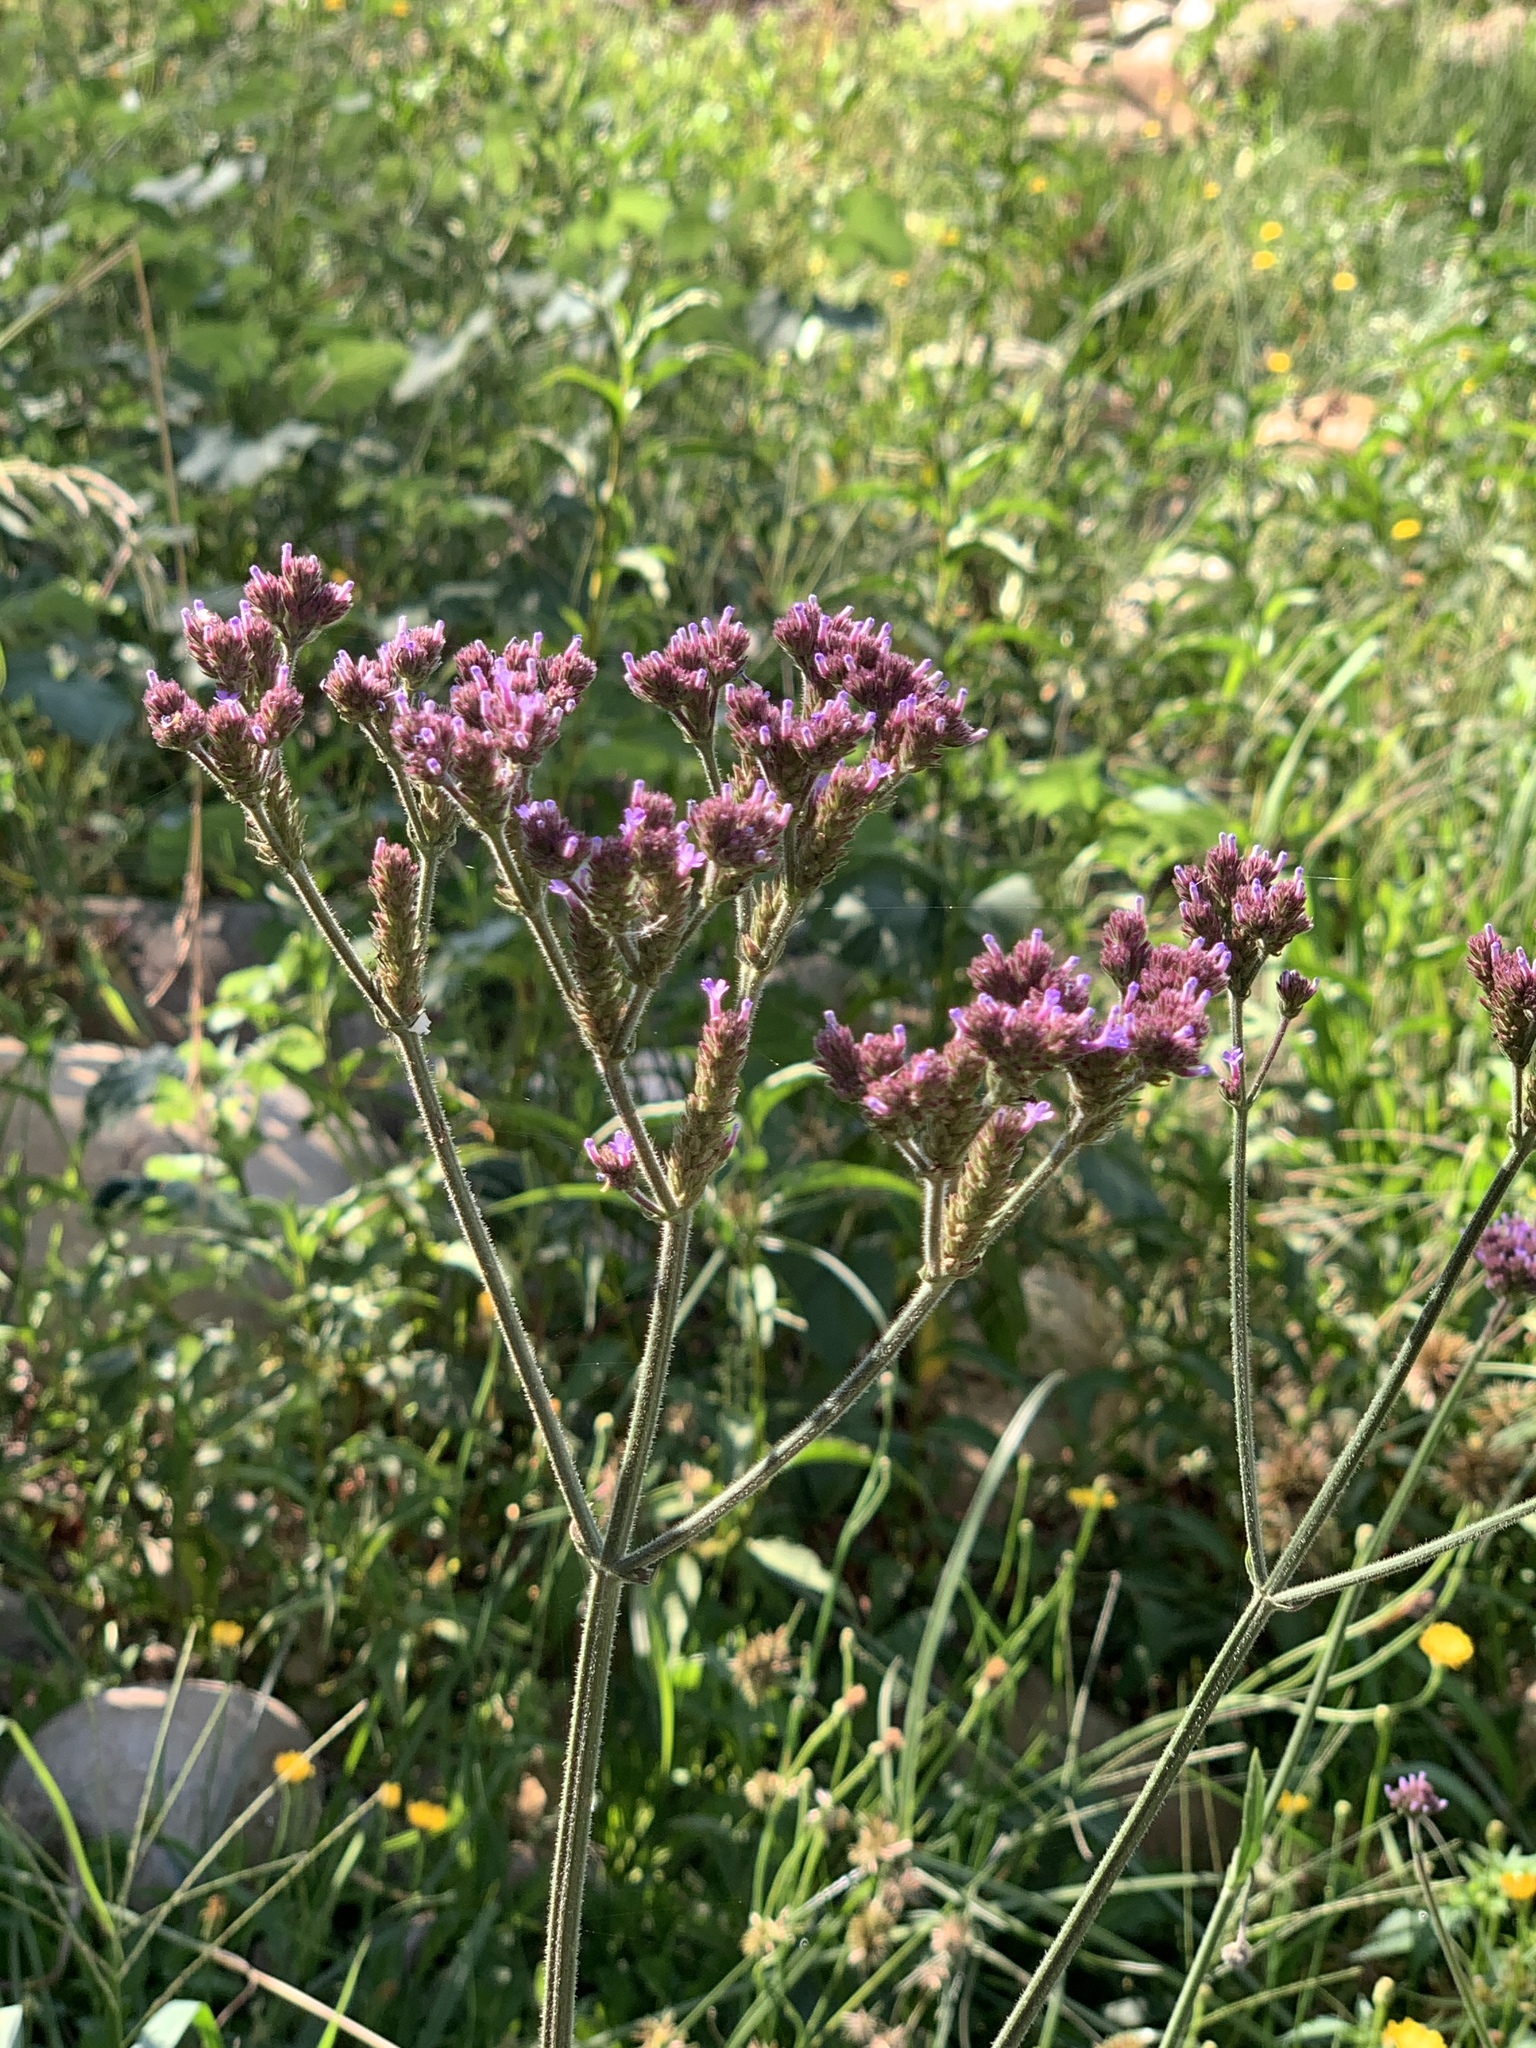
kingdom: Plantae
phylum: Tracheophyta
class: Magnoliopsida
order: Lamiales
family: Verbenaceae
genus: Verbena
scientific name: Verbena bonariensis
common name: Purpletop vervain
